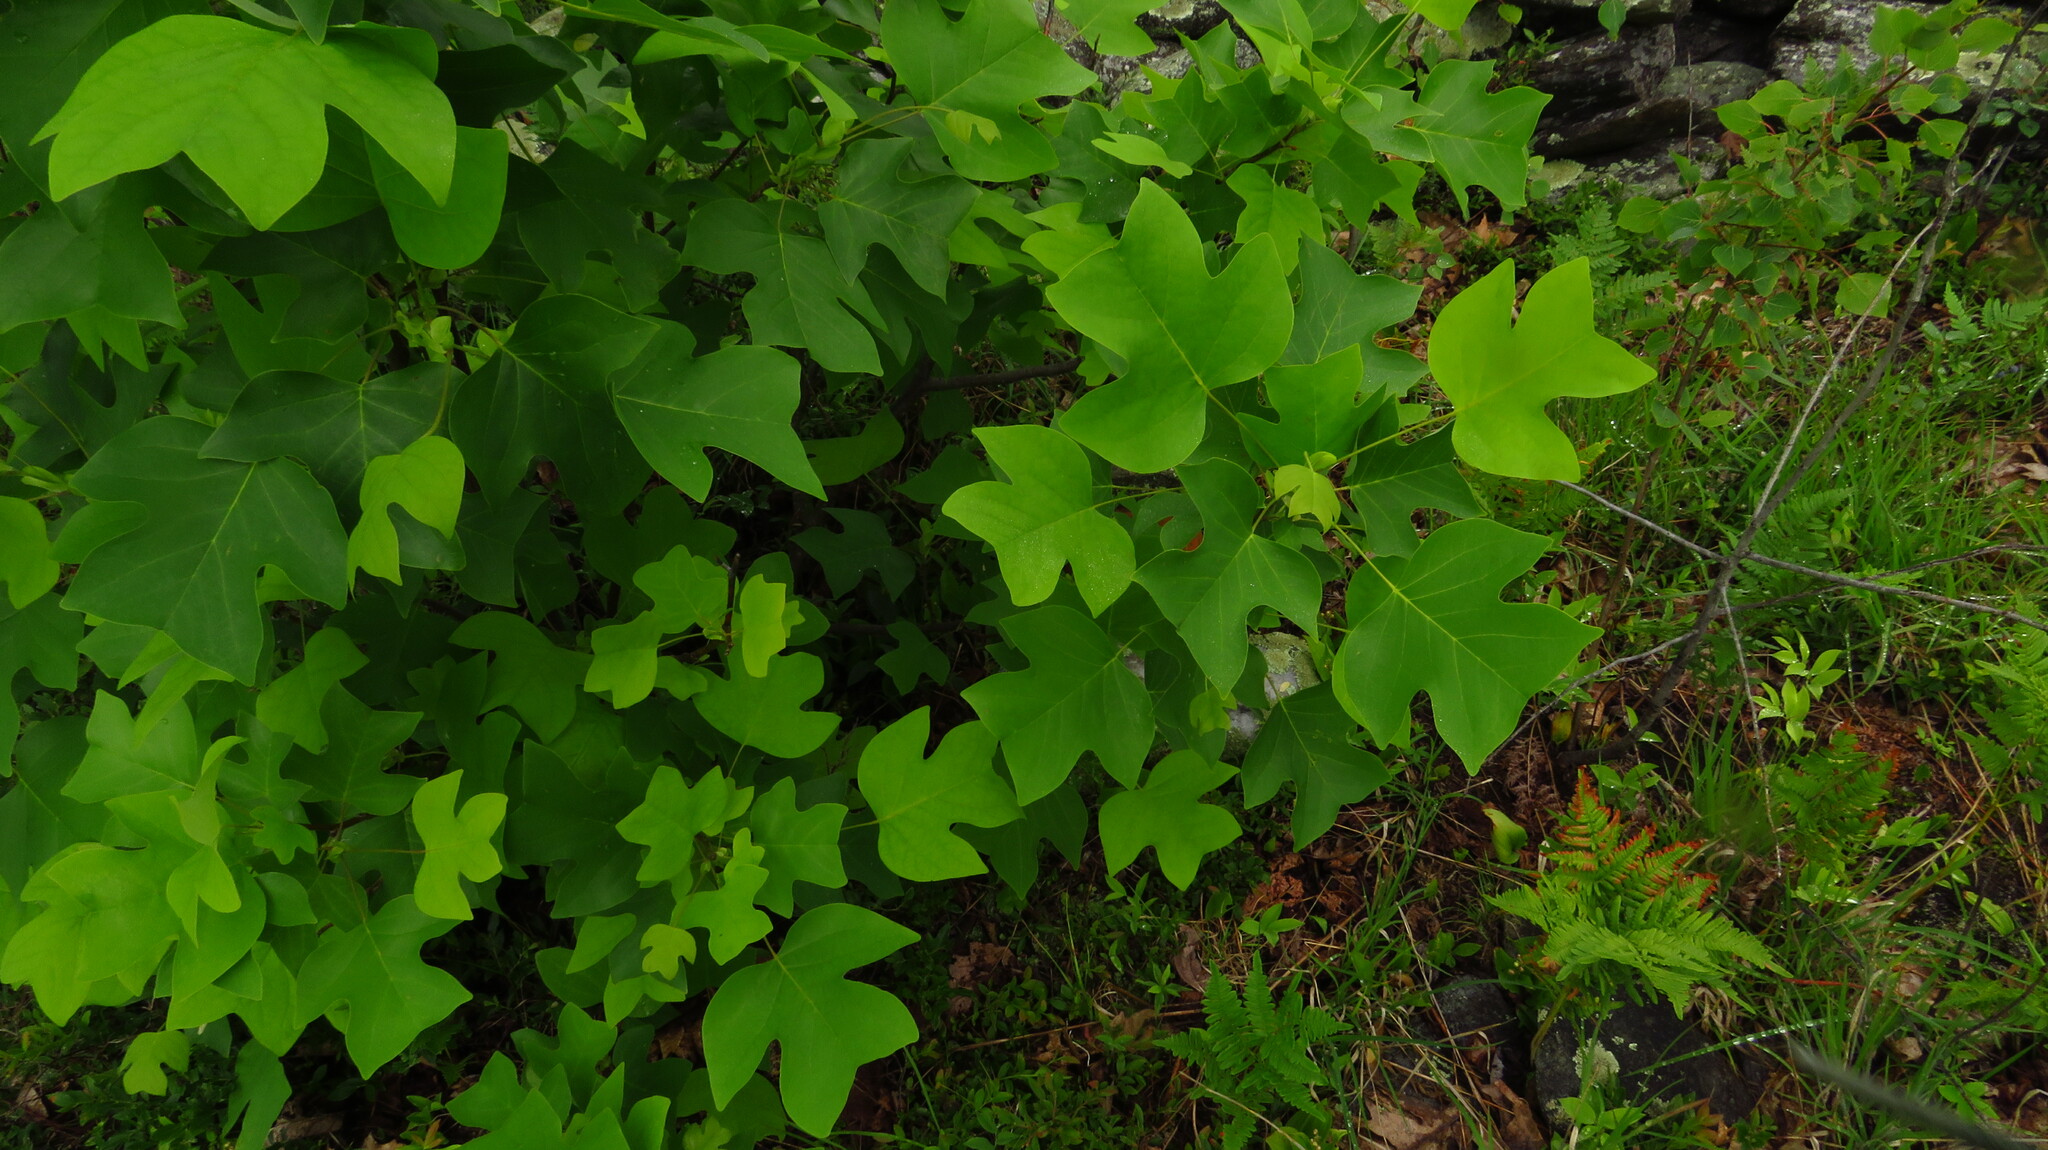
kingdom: Plantae
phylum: Tracheophyta
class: Magnoliopsida
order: Magnoliales
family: Magnoliaceae
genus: Liriodendron
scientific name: Liriodendron tulipifera
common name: Tulip tree
